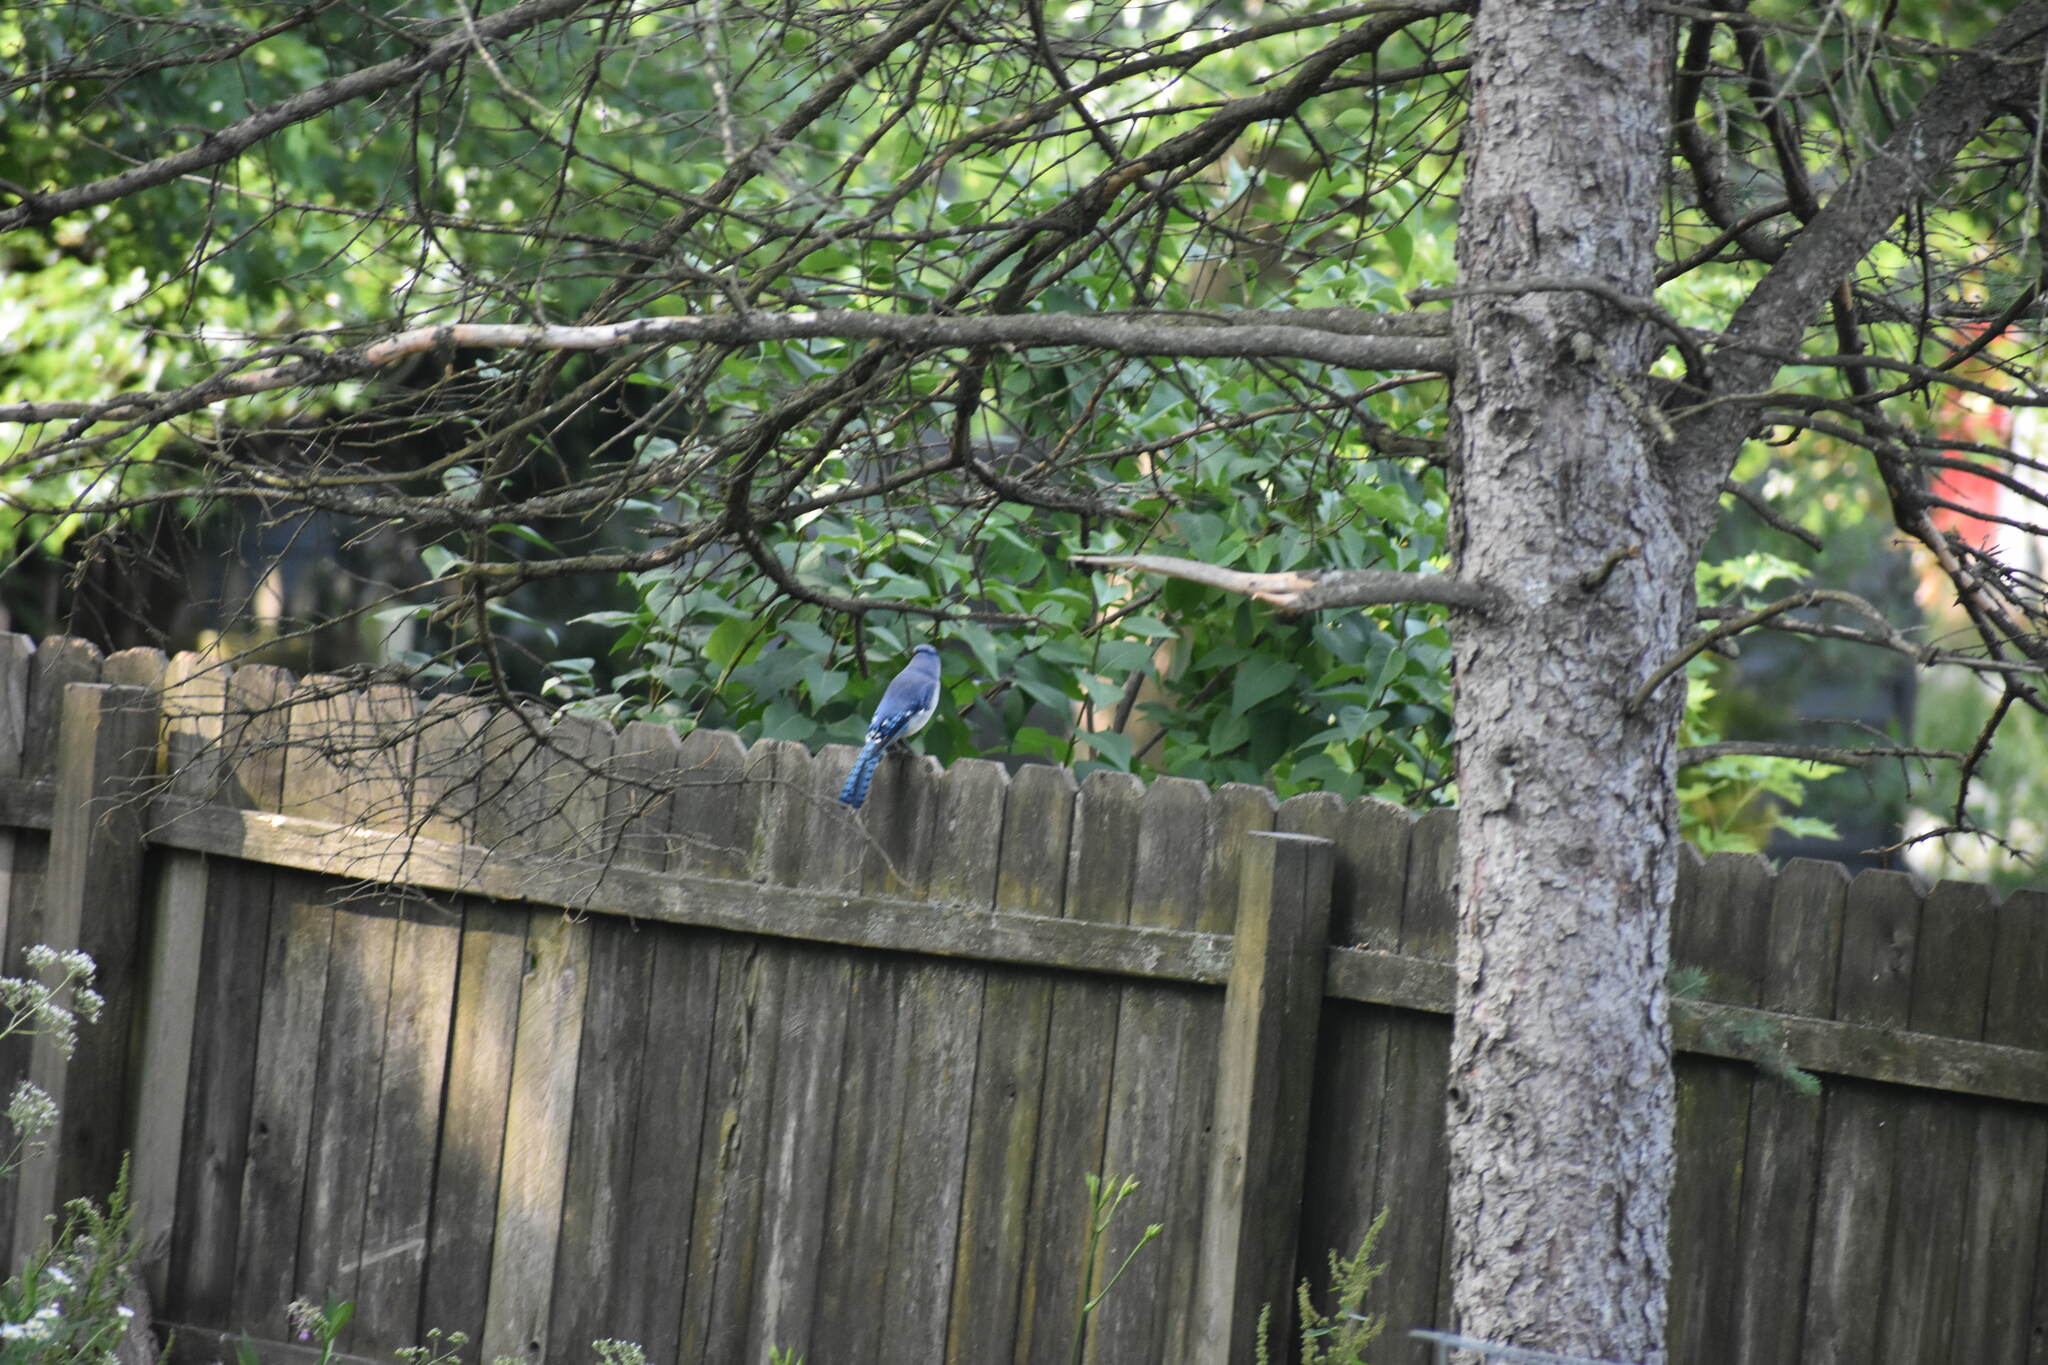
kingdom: Animalia
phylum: Chordata
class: Aves
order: Passeriformes
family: Corvidae
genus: Cyanocitta
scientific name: Cyanocitta cristata
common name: Blue jay
